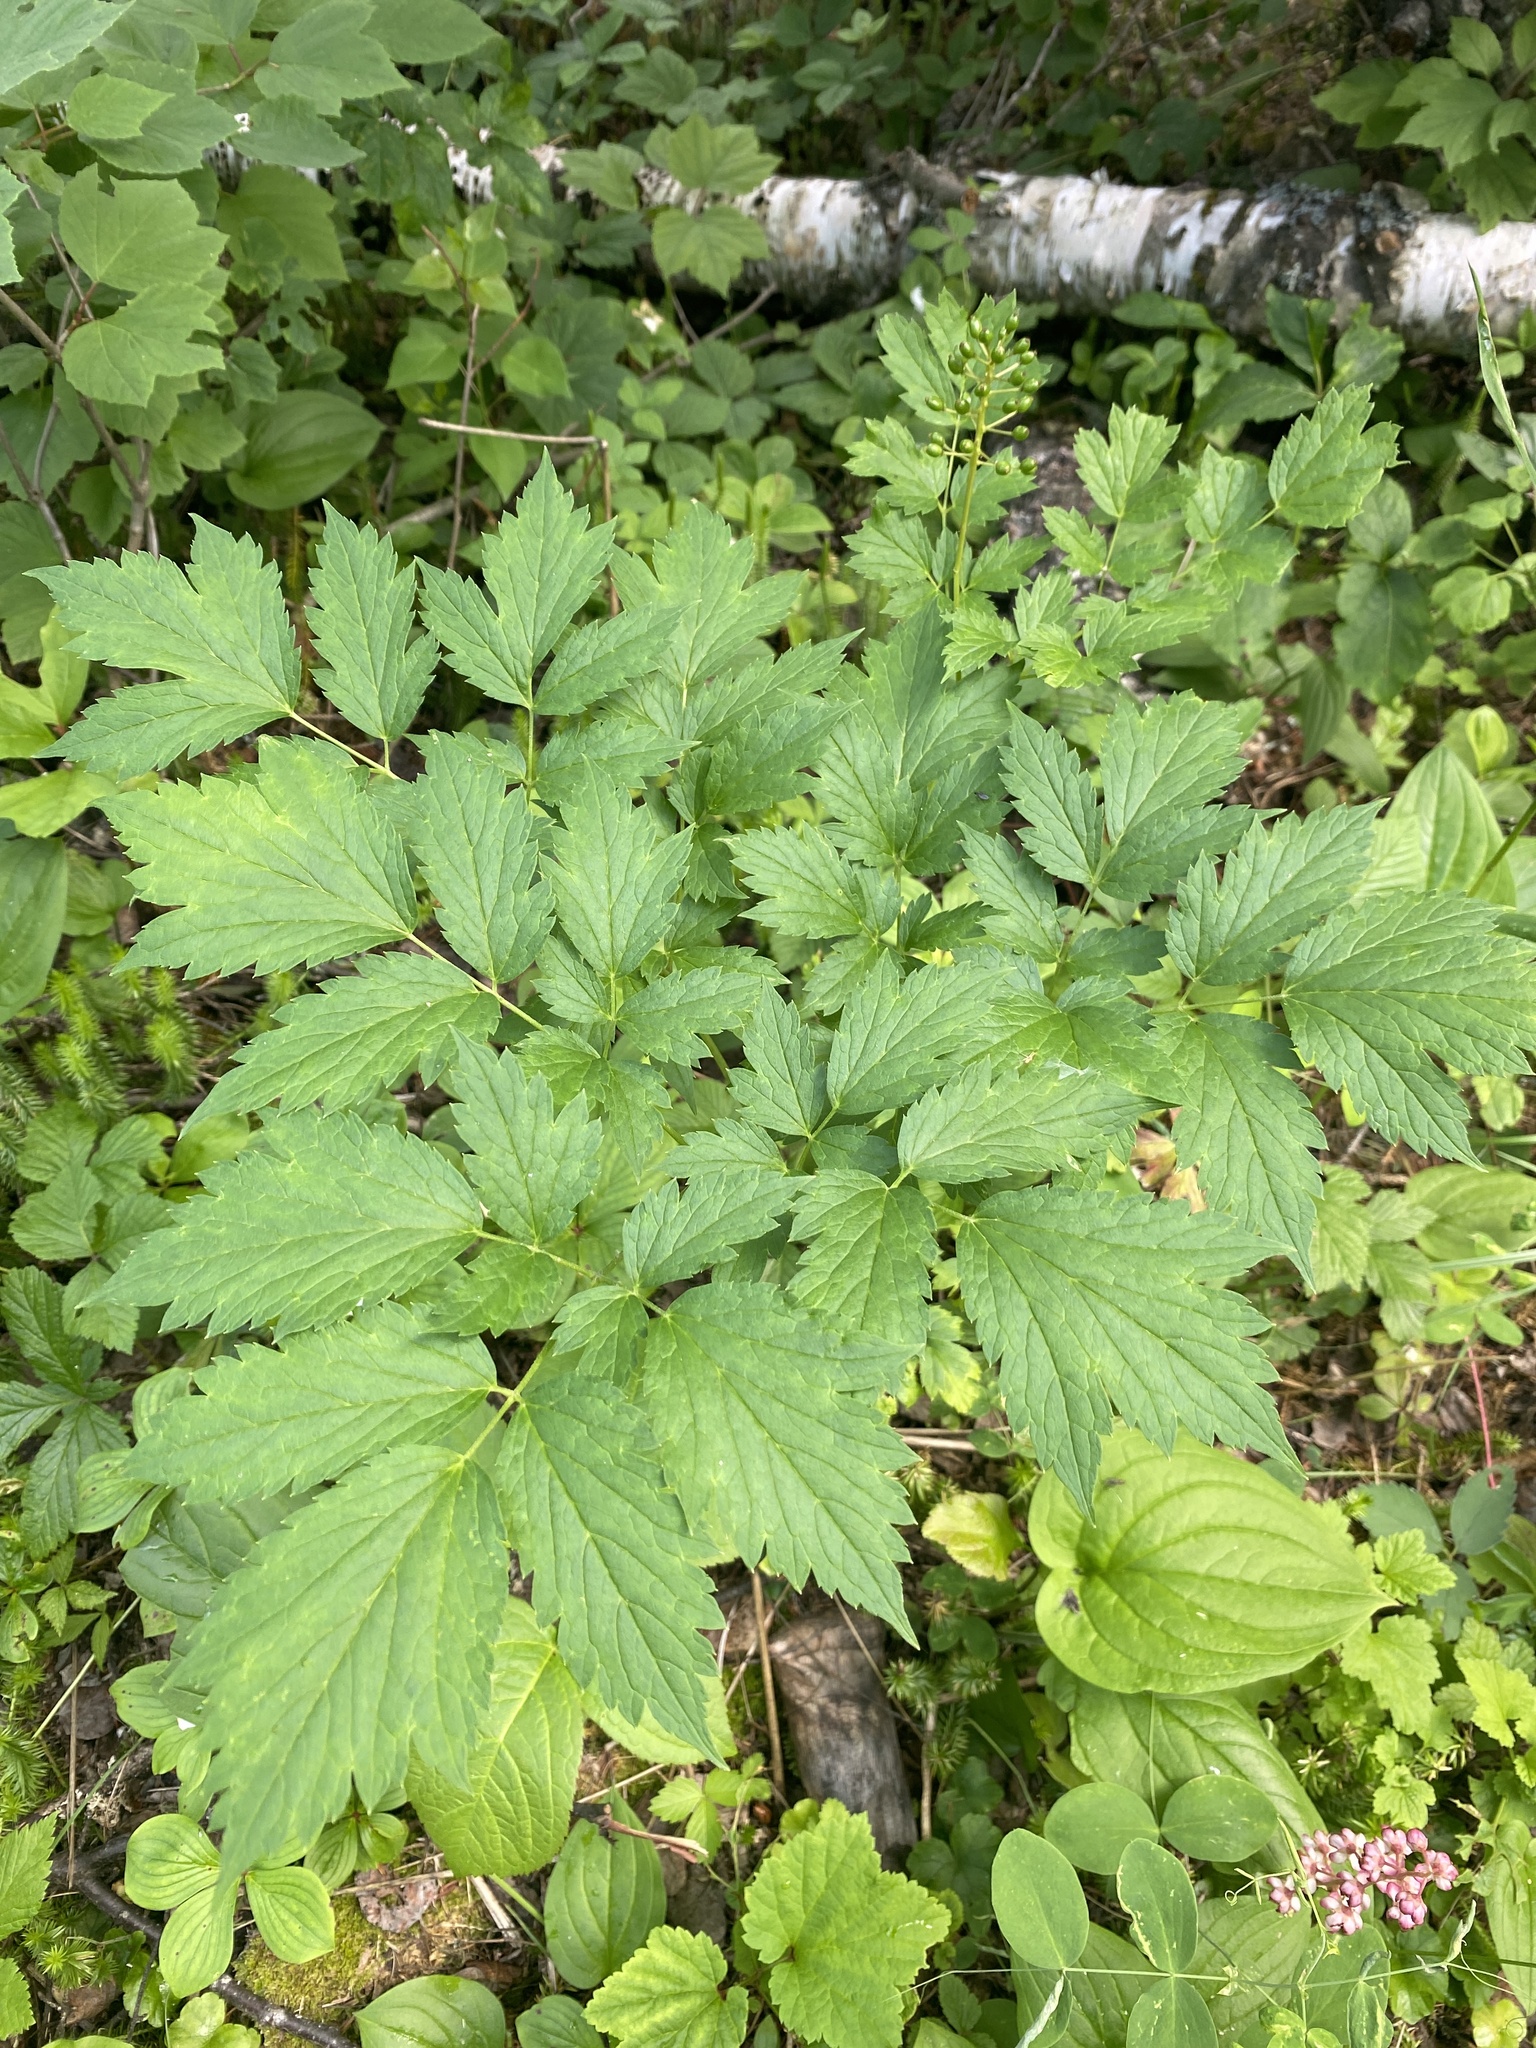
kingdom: Plantae
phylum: Tracheophyta
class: Magnoliopsida
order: Ranunculales
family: Ranunculaceae
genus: Actaea
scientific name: Actaea rubra
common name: Red baneberry
